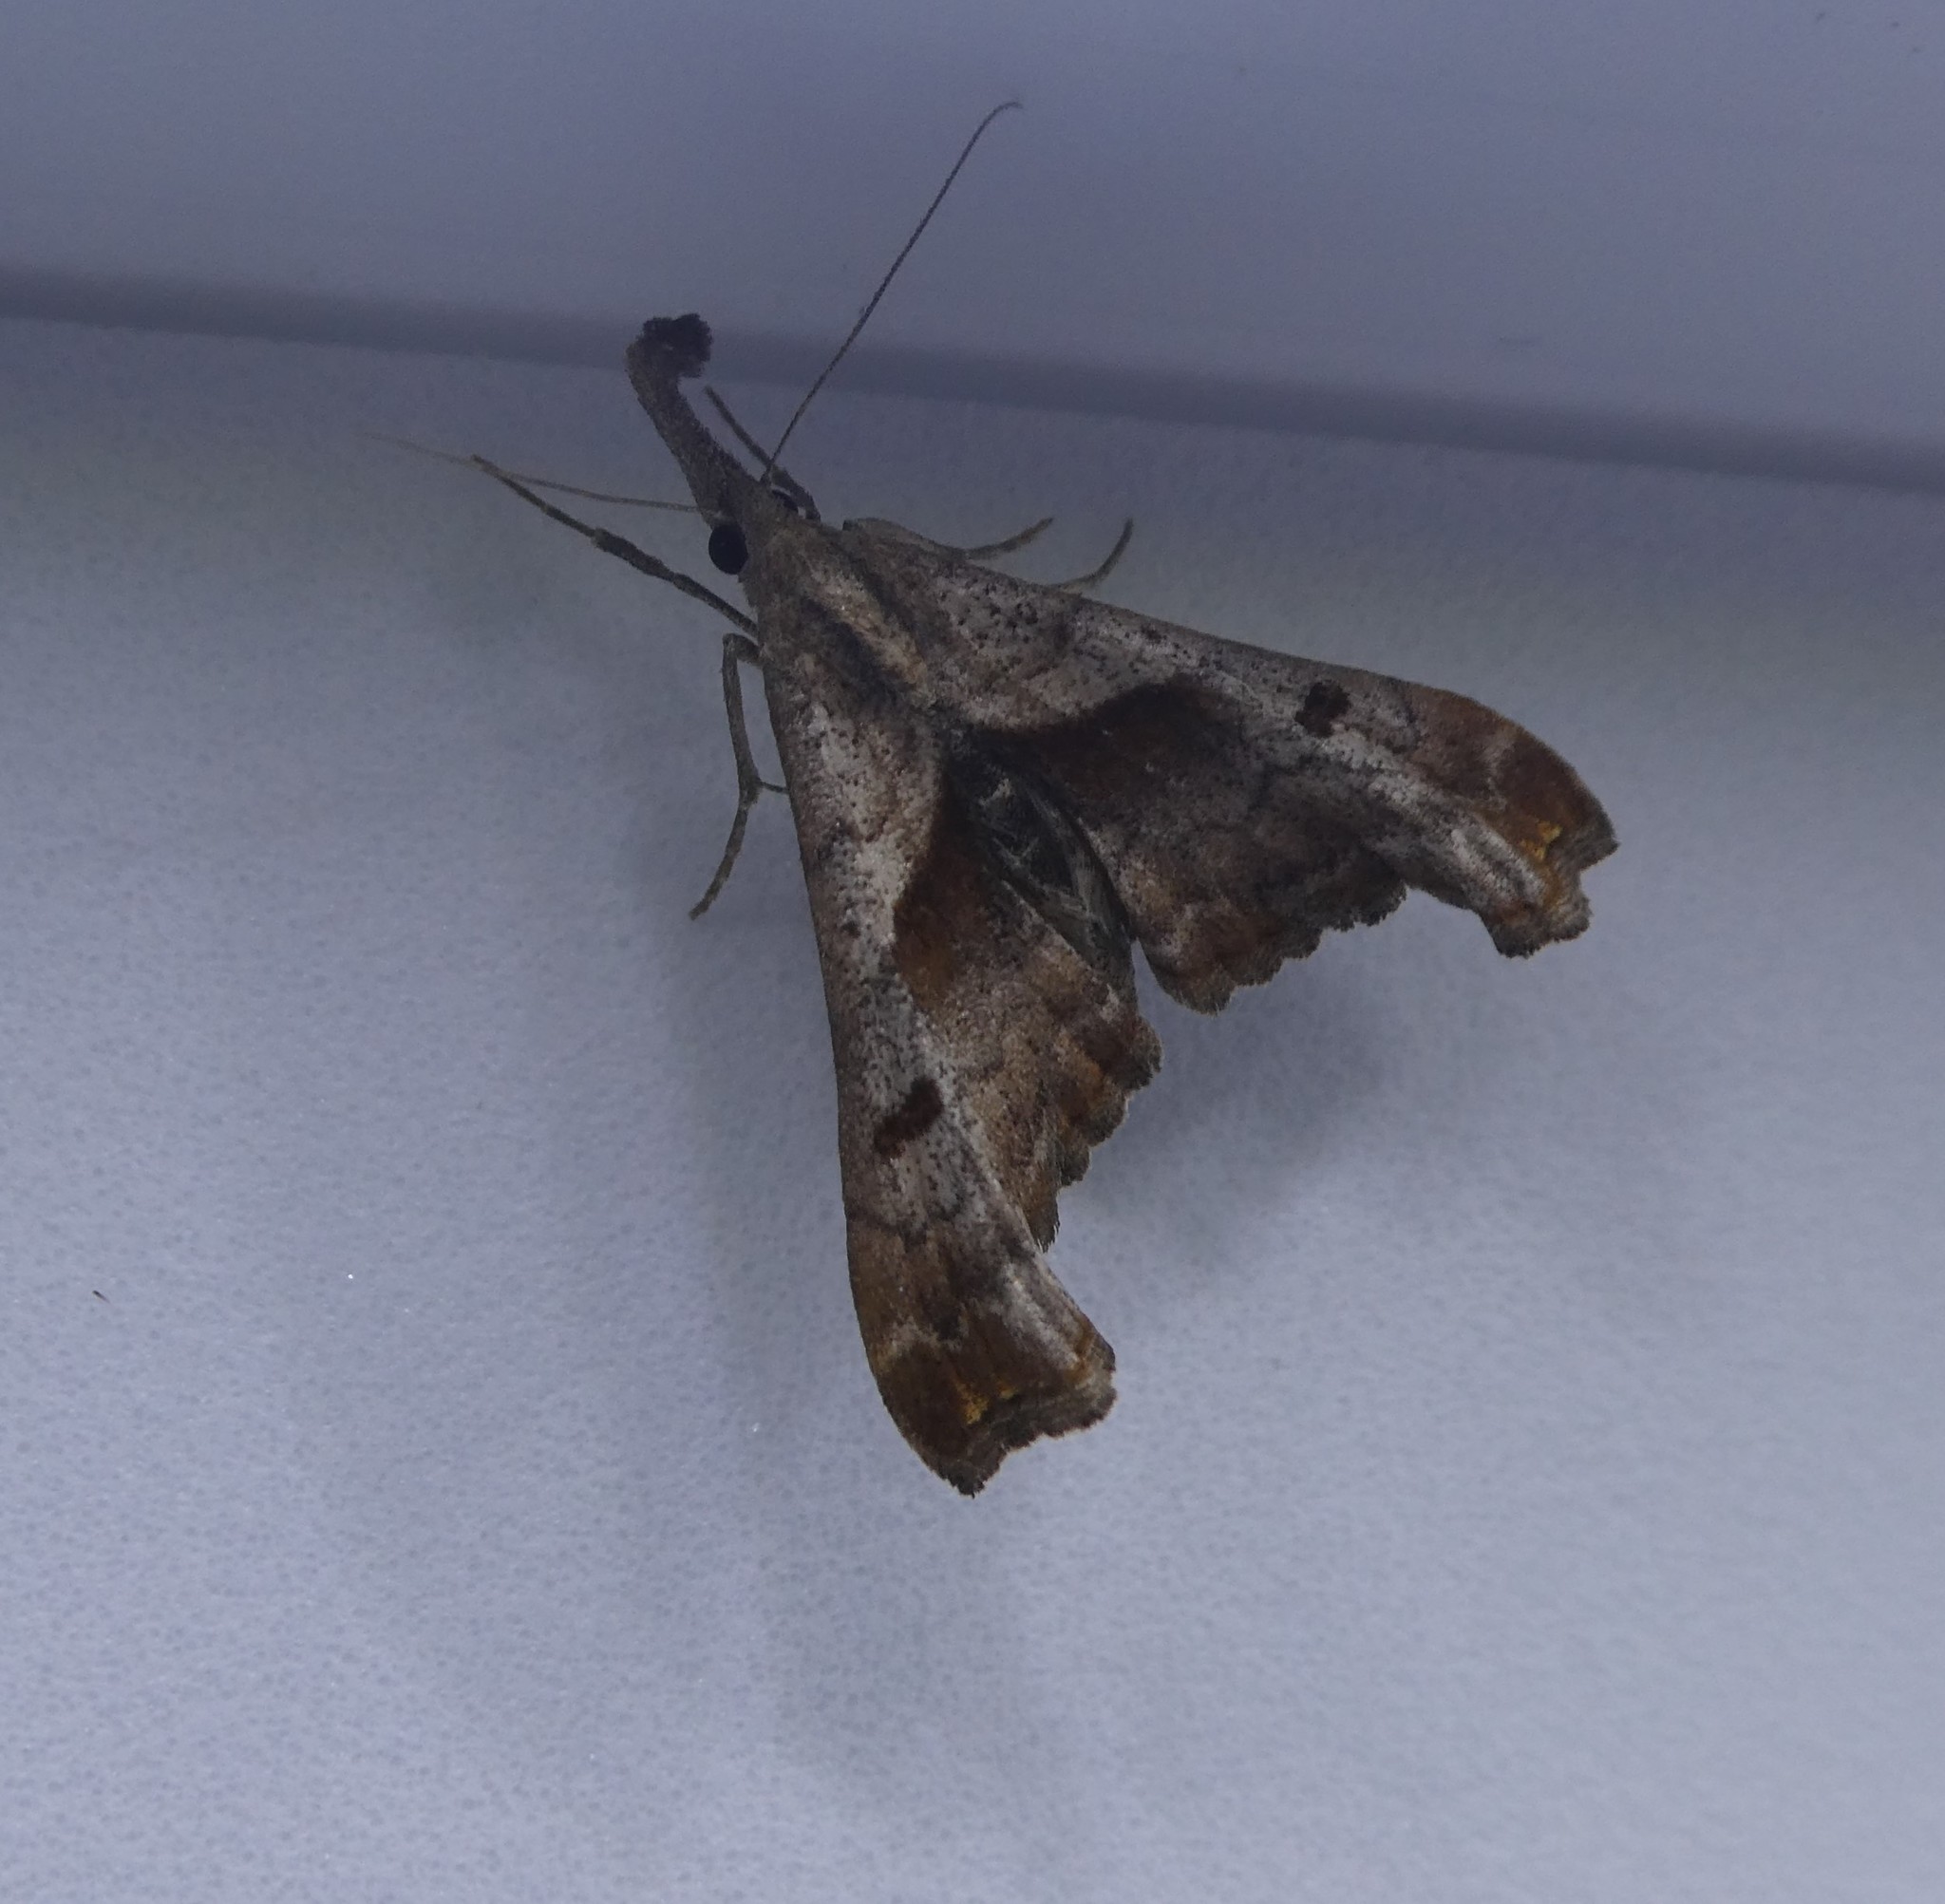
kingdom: Animalia
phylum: Arthropoda
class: Insecta
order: Lepidoptera
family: Erebidae
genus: Palthis
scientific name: Palthis angulalis
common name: Dark-spotted palthis moth
